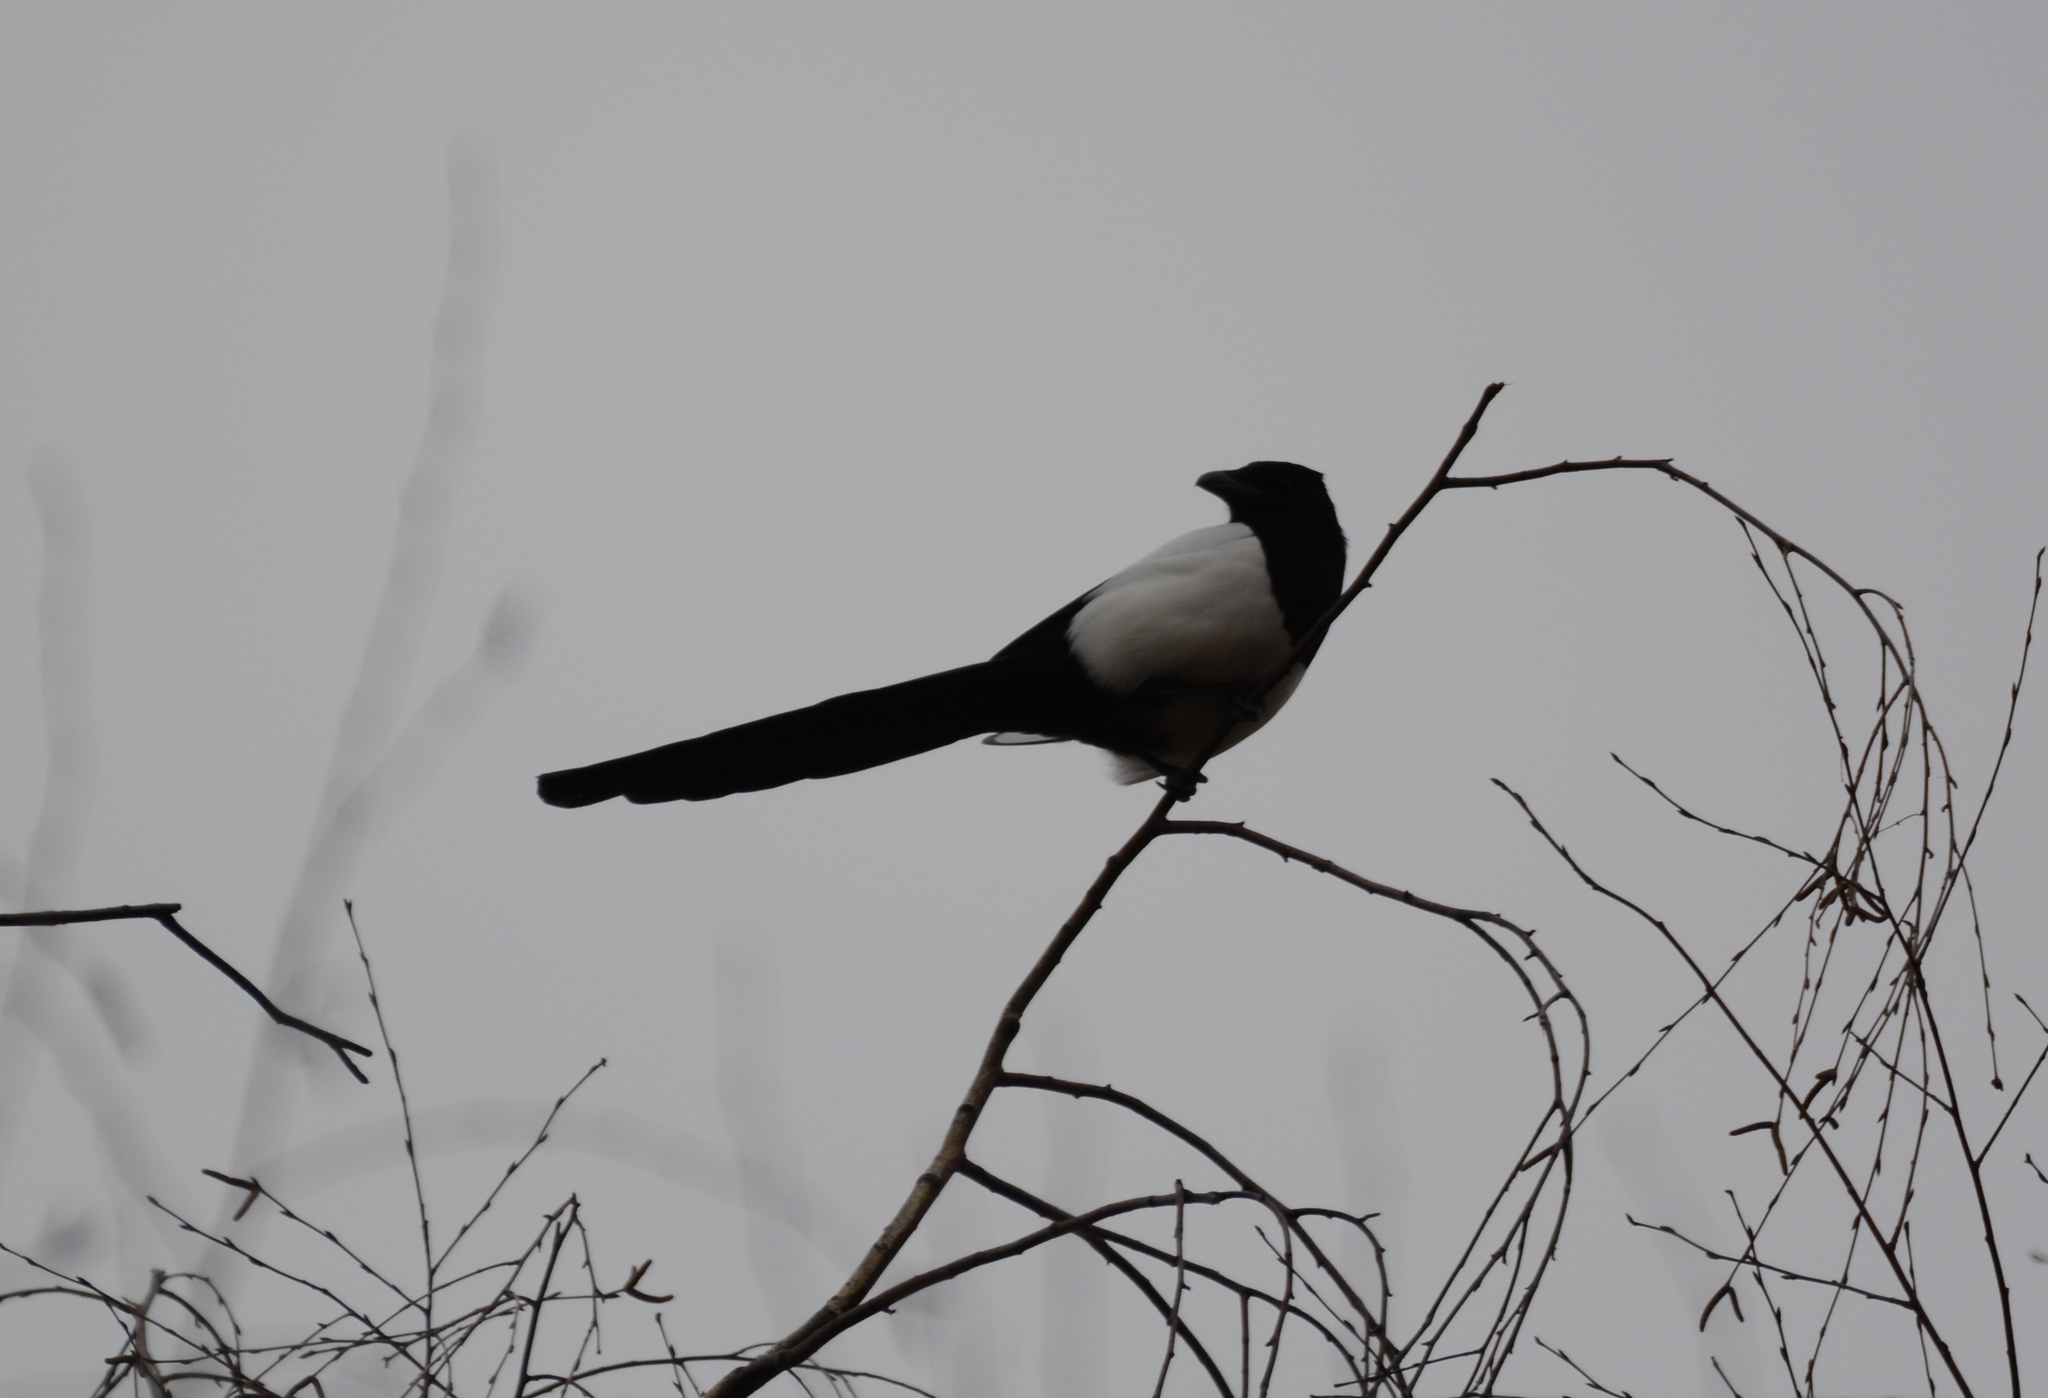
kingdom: Animalia
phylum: Chordata
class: Aves
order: Passeriformes
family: Corvidae
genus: Pica
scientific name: Pica pica
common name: Eurasian magpie
